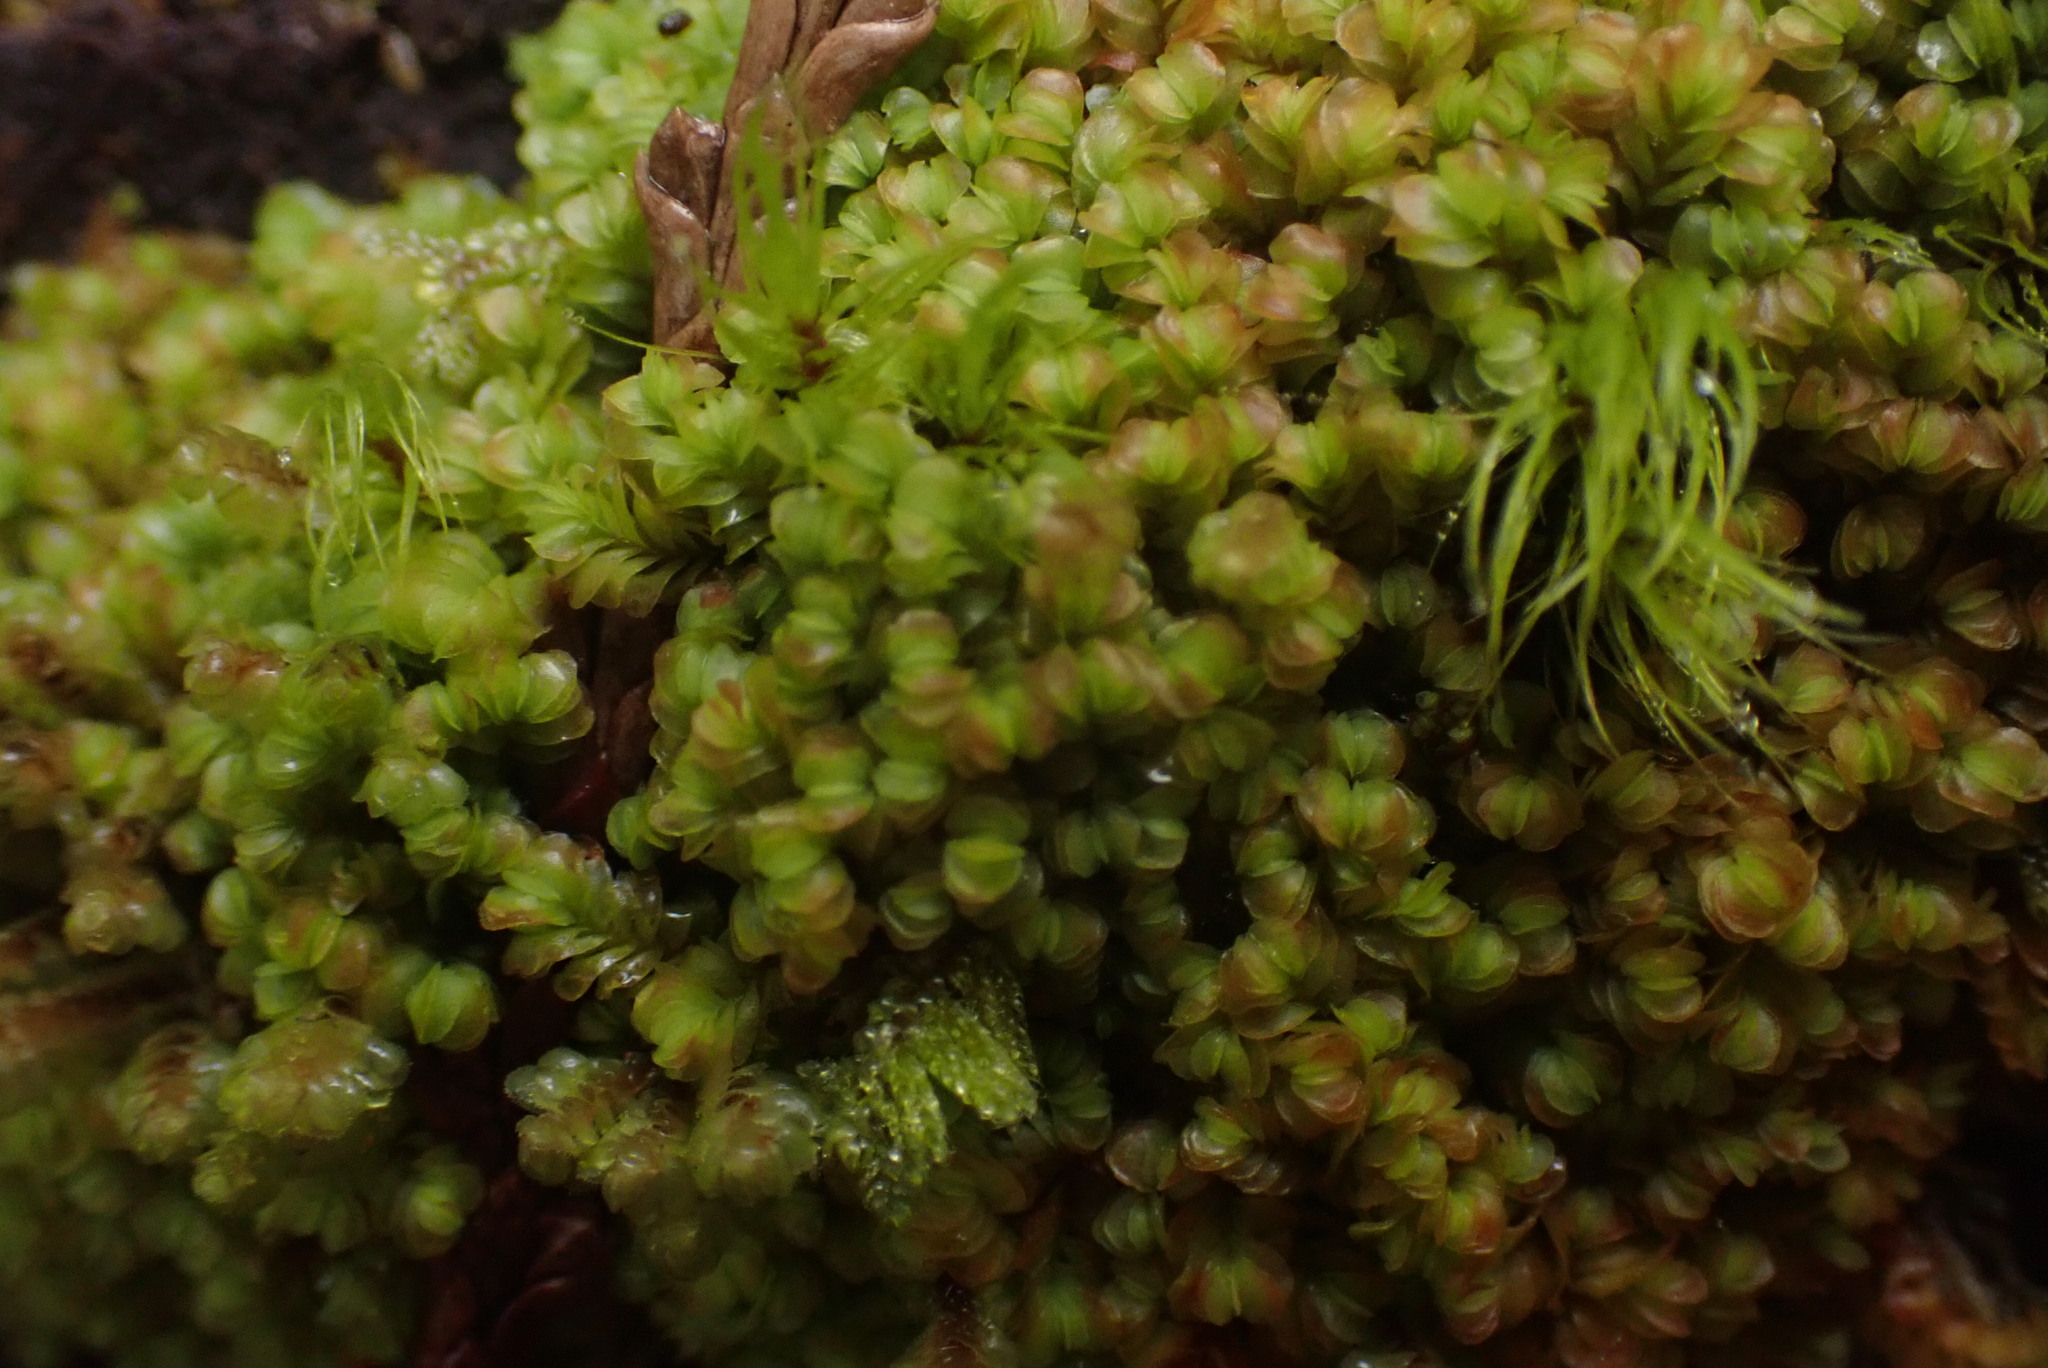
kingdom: Plantae
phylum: Marchantiophyta
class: Jungermanniopsida
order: Jungermanniales
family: Myliaceae
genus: Mylia
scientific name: Mylia taylorii
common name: Taylor s flapwort
